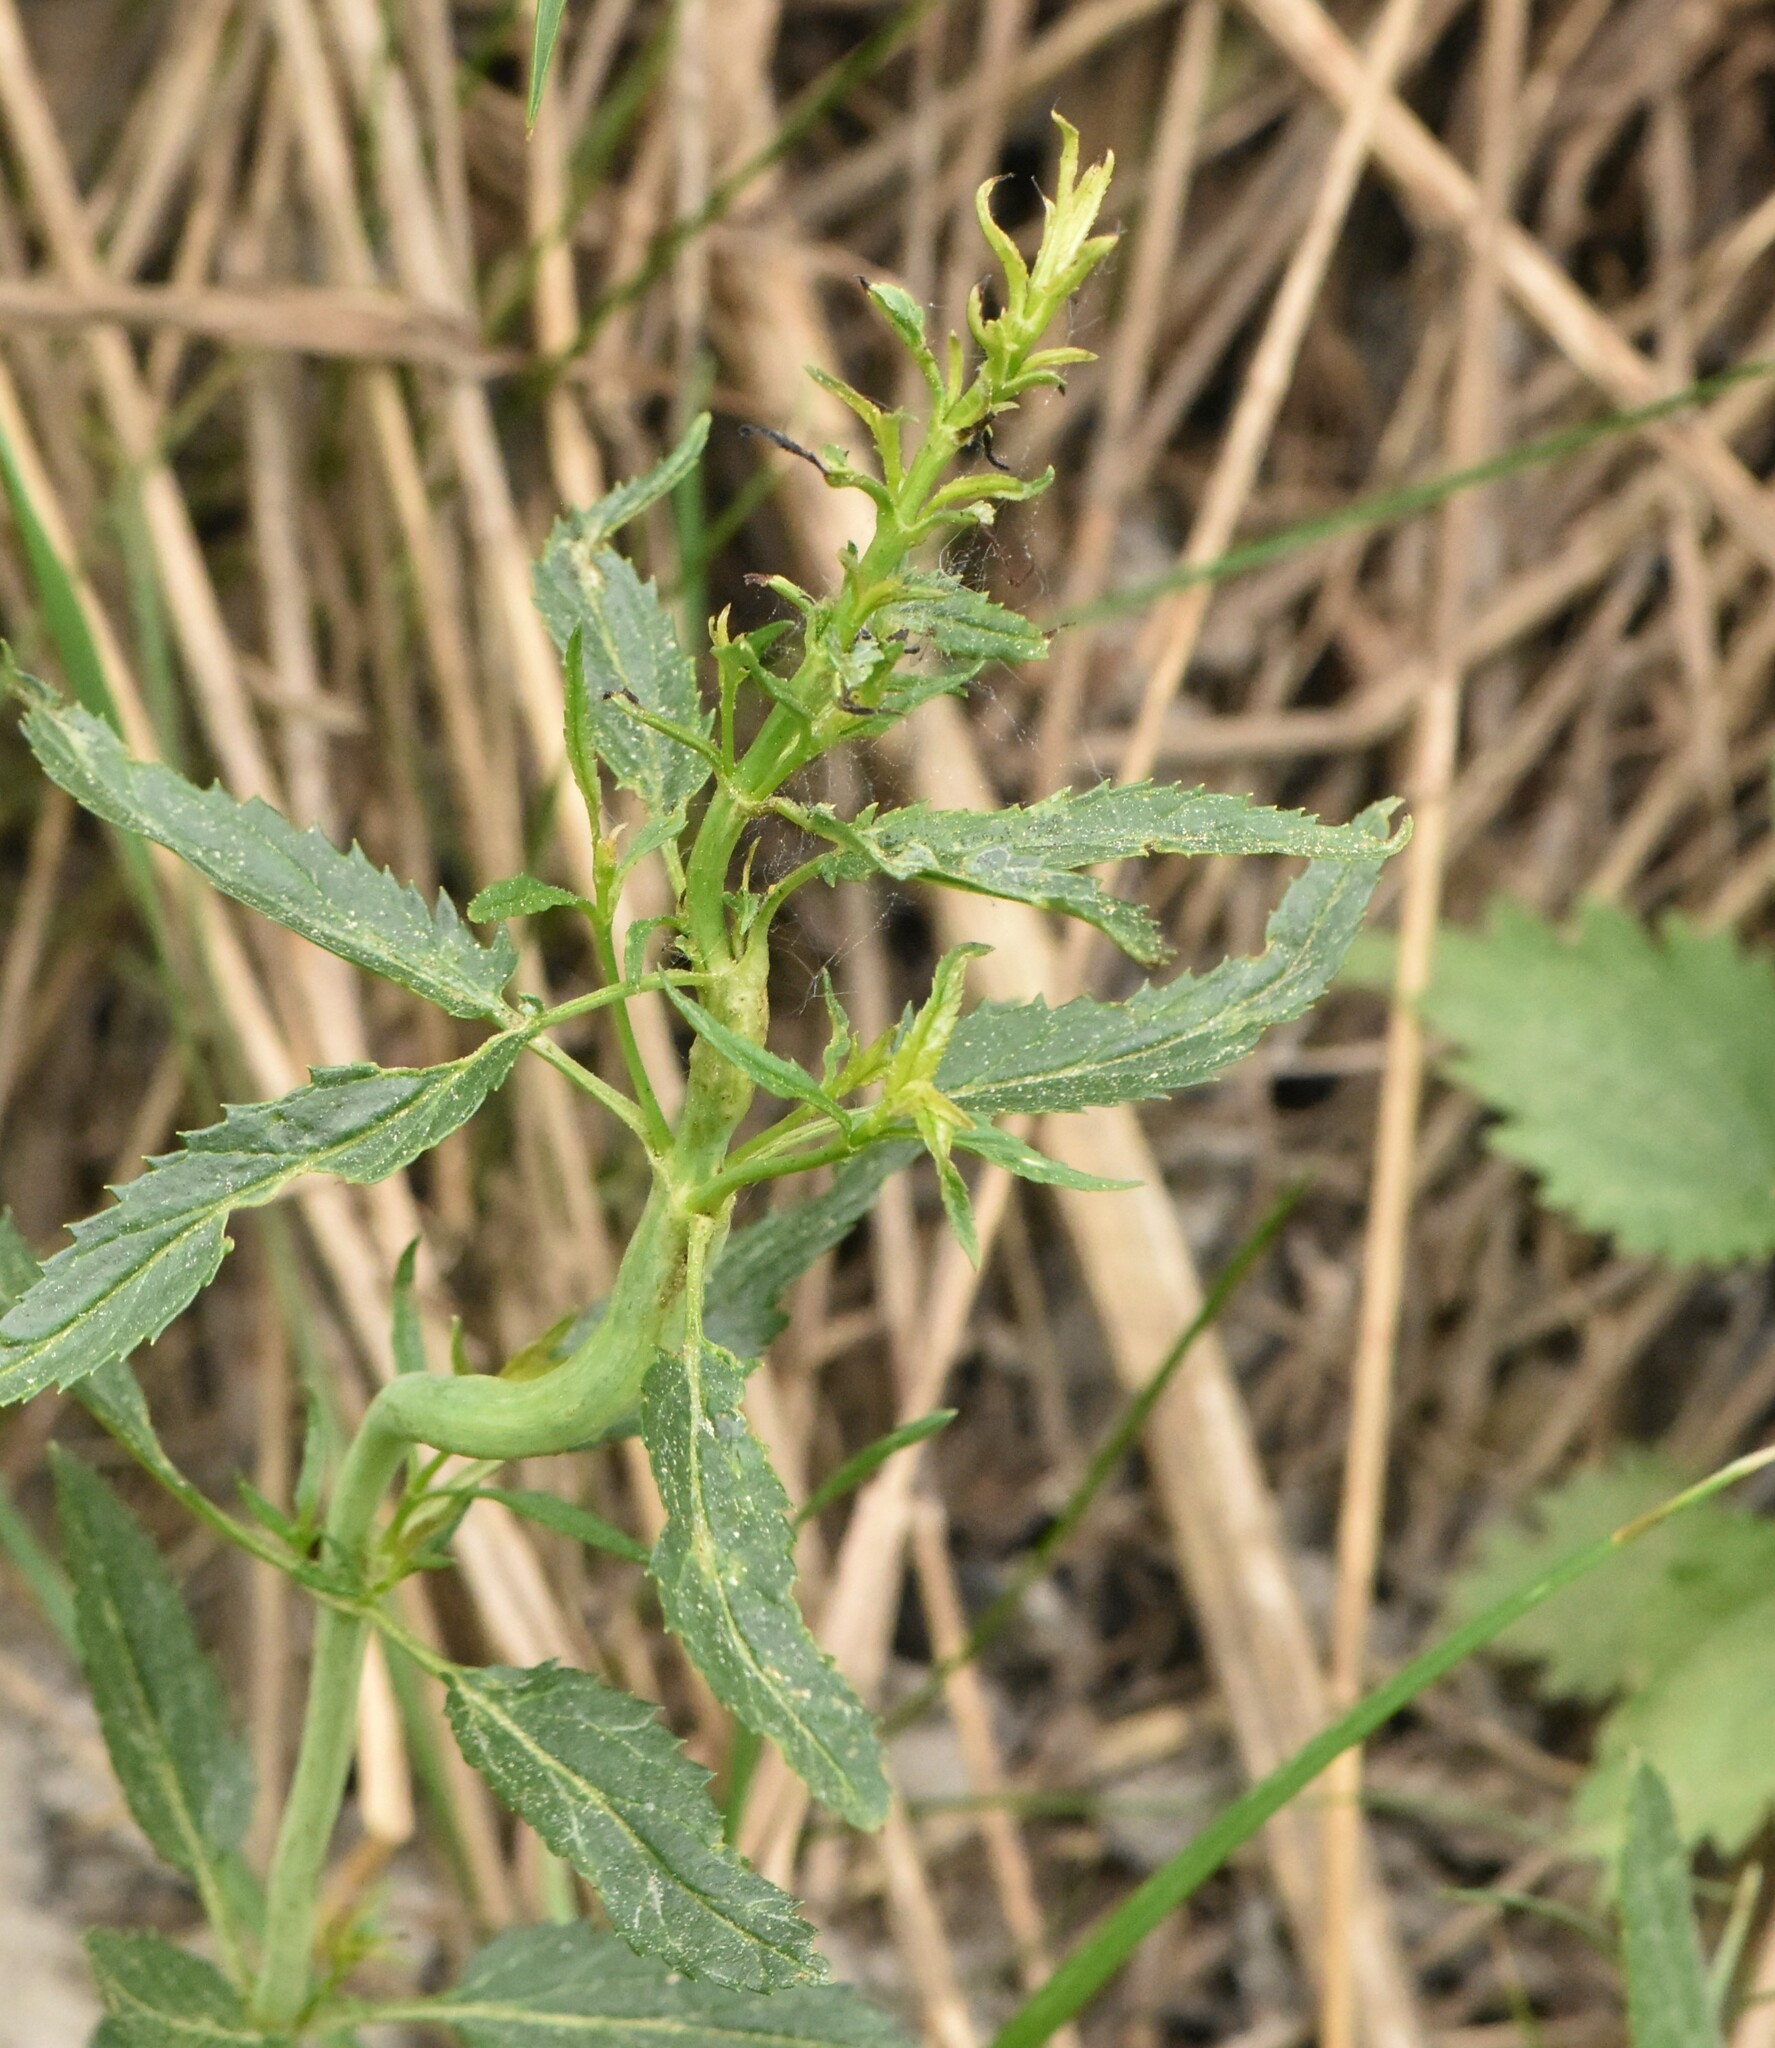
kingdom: Plantae
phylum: Tracheophyta
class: Magnoliopsida
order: Lamiales
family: Plantaginaceae
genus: Veronica
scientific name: Veronica longifolia
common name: Garden speedwell
